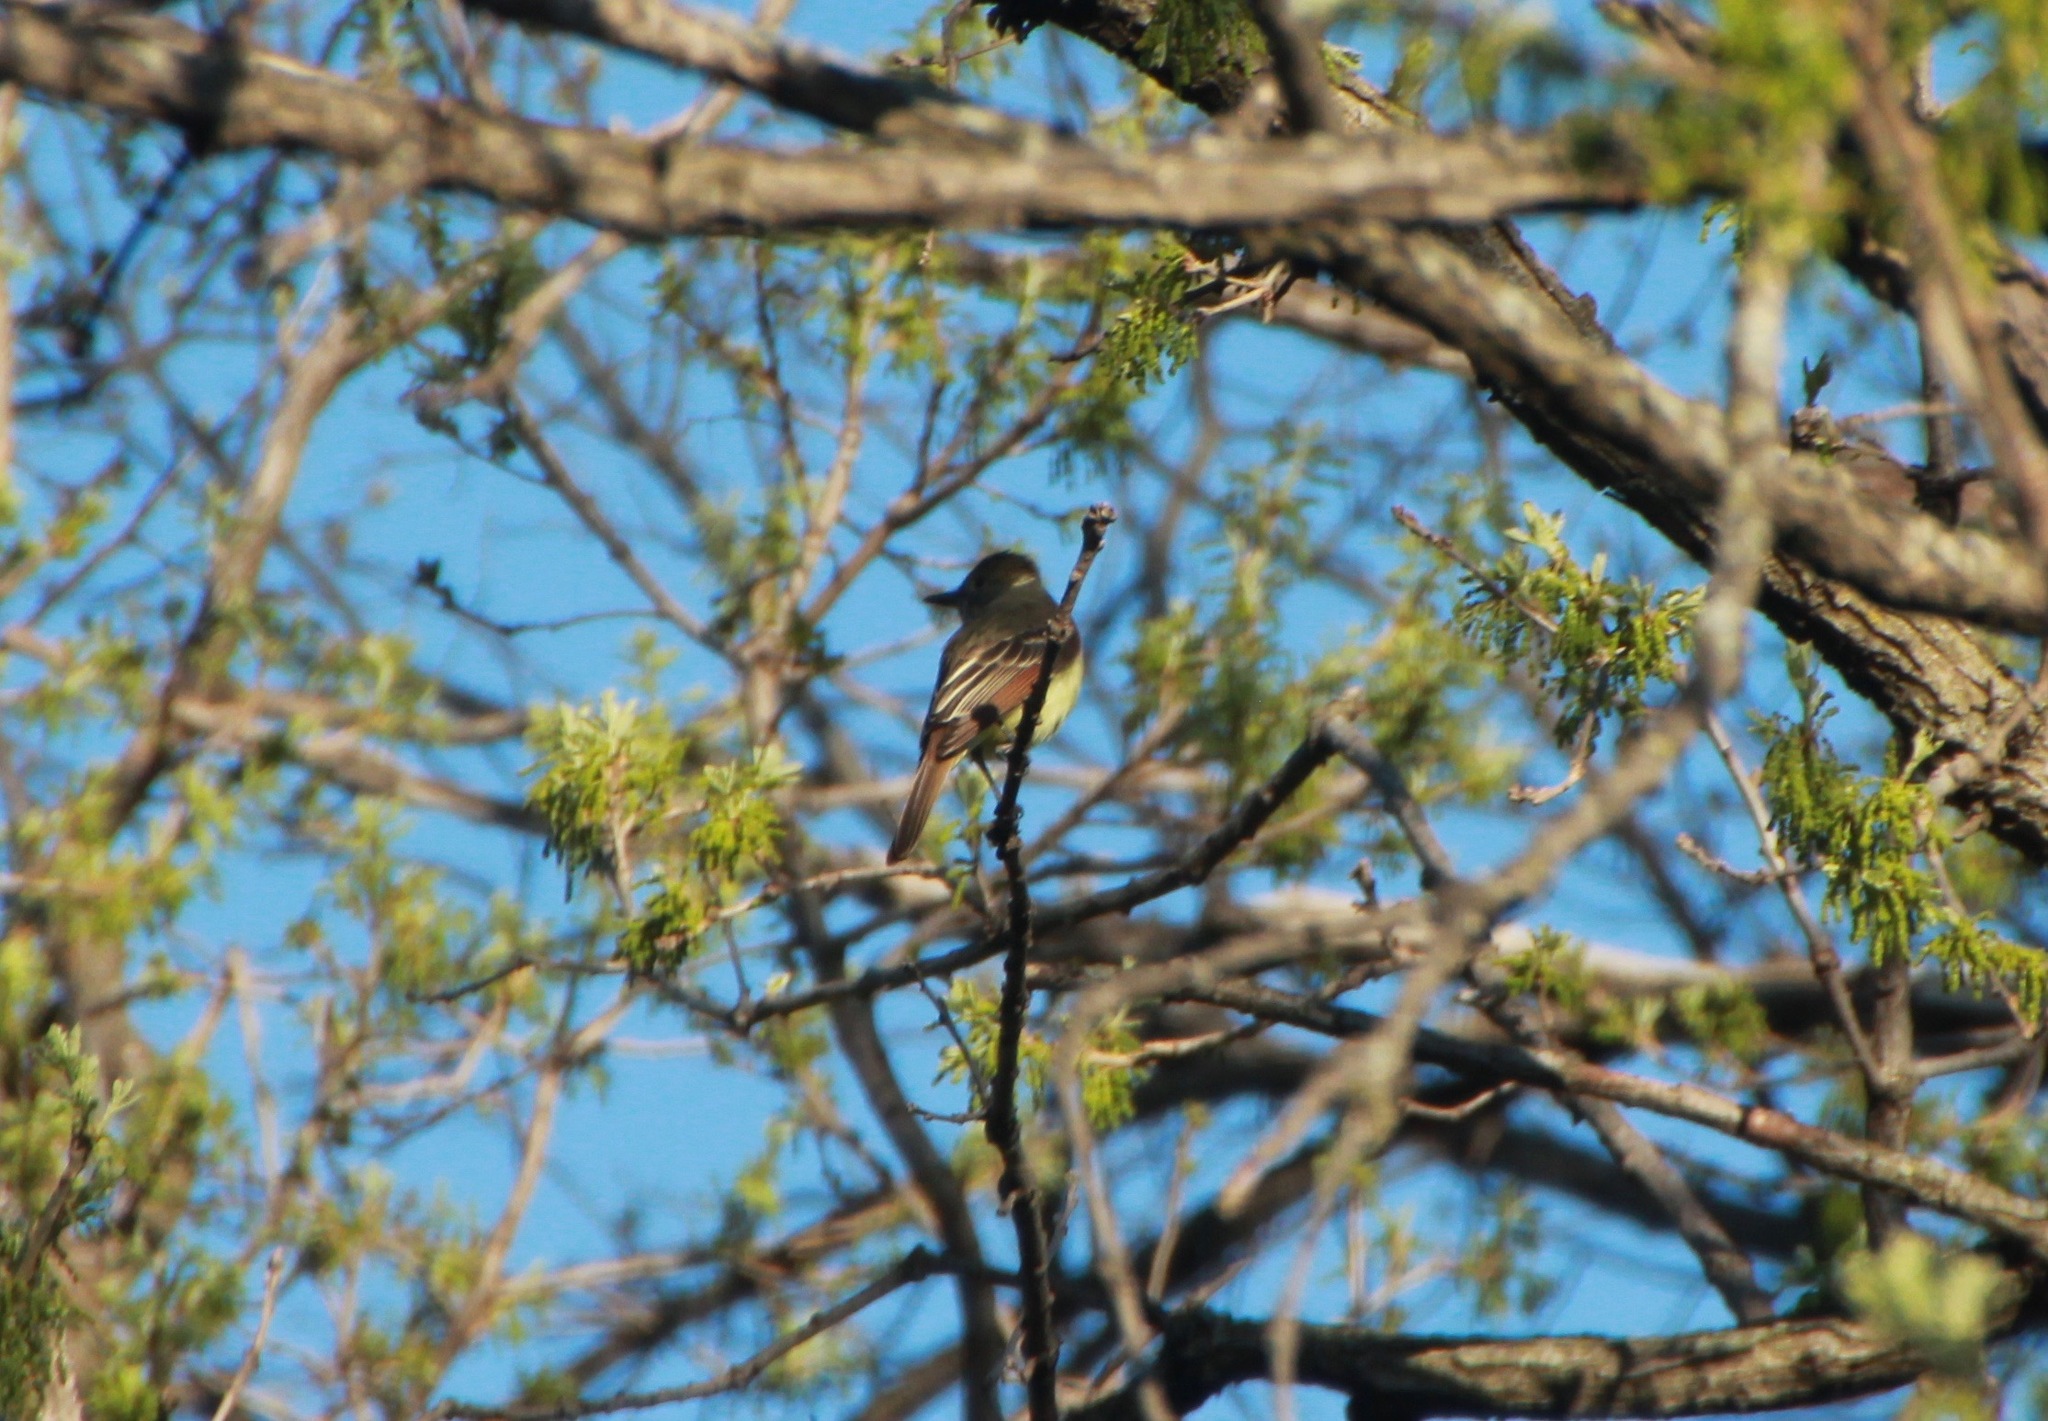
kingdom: Animalia
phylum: Chordata
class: Aves
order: Passeriformes
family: Tyrannidae
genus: Myiarchus
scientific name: Myiarchus crinitus
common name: Great crested flycatcher
